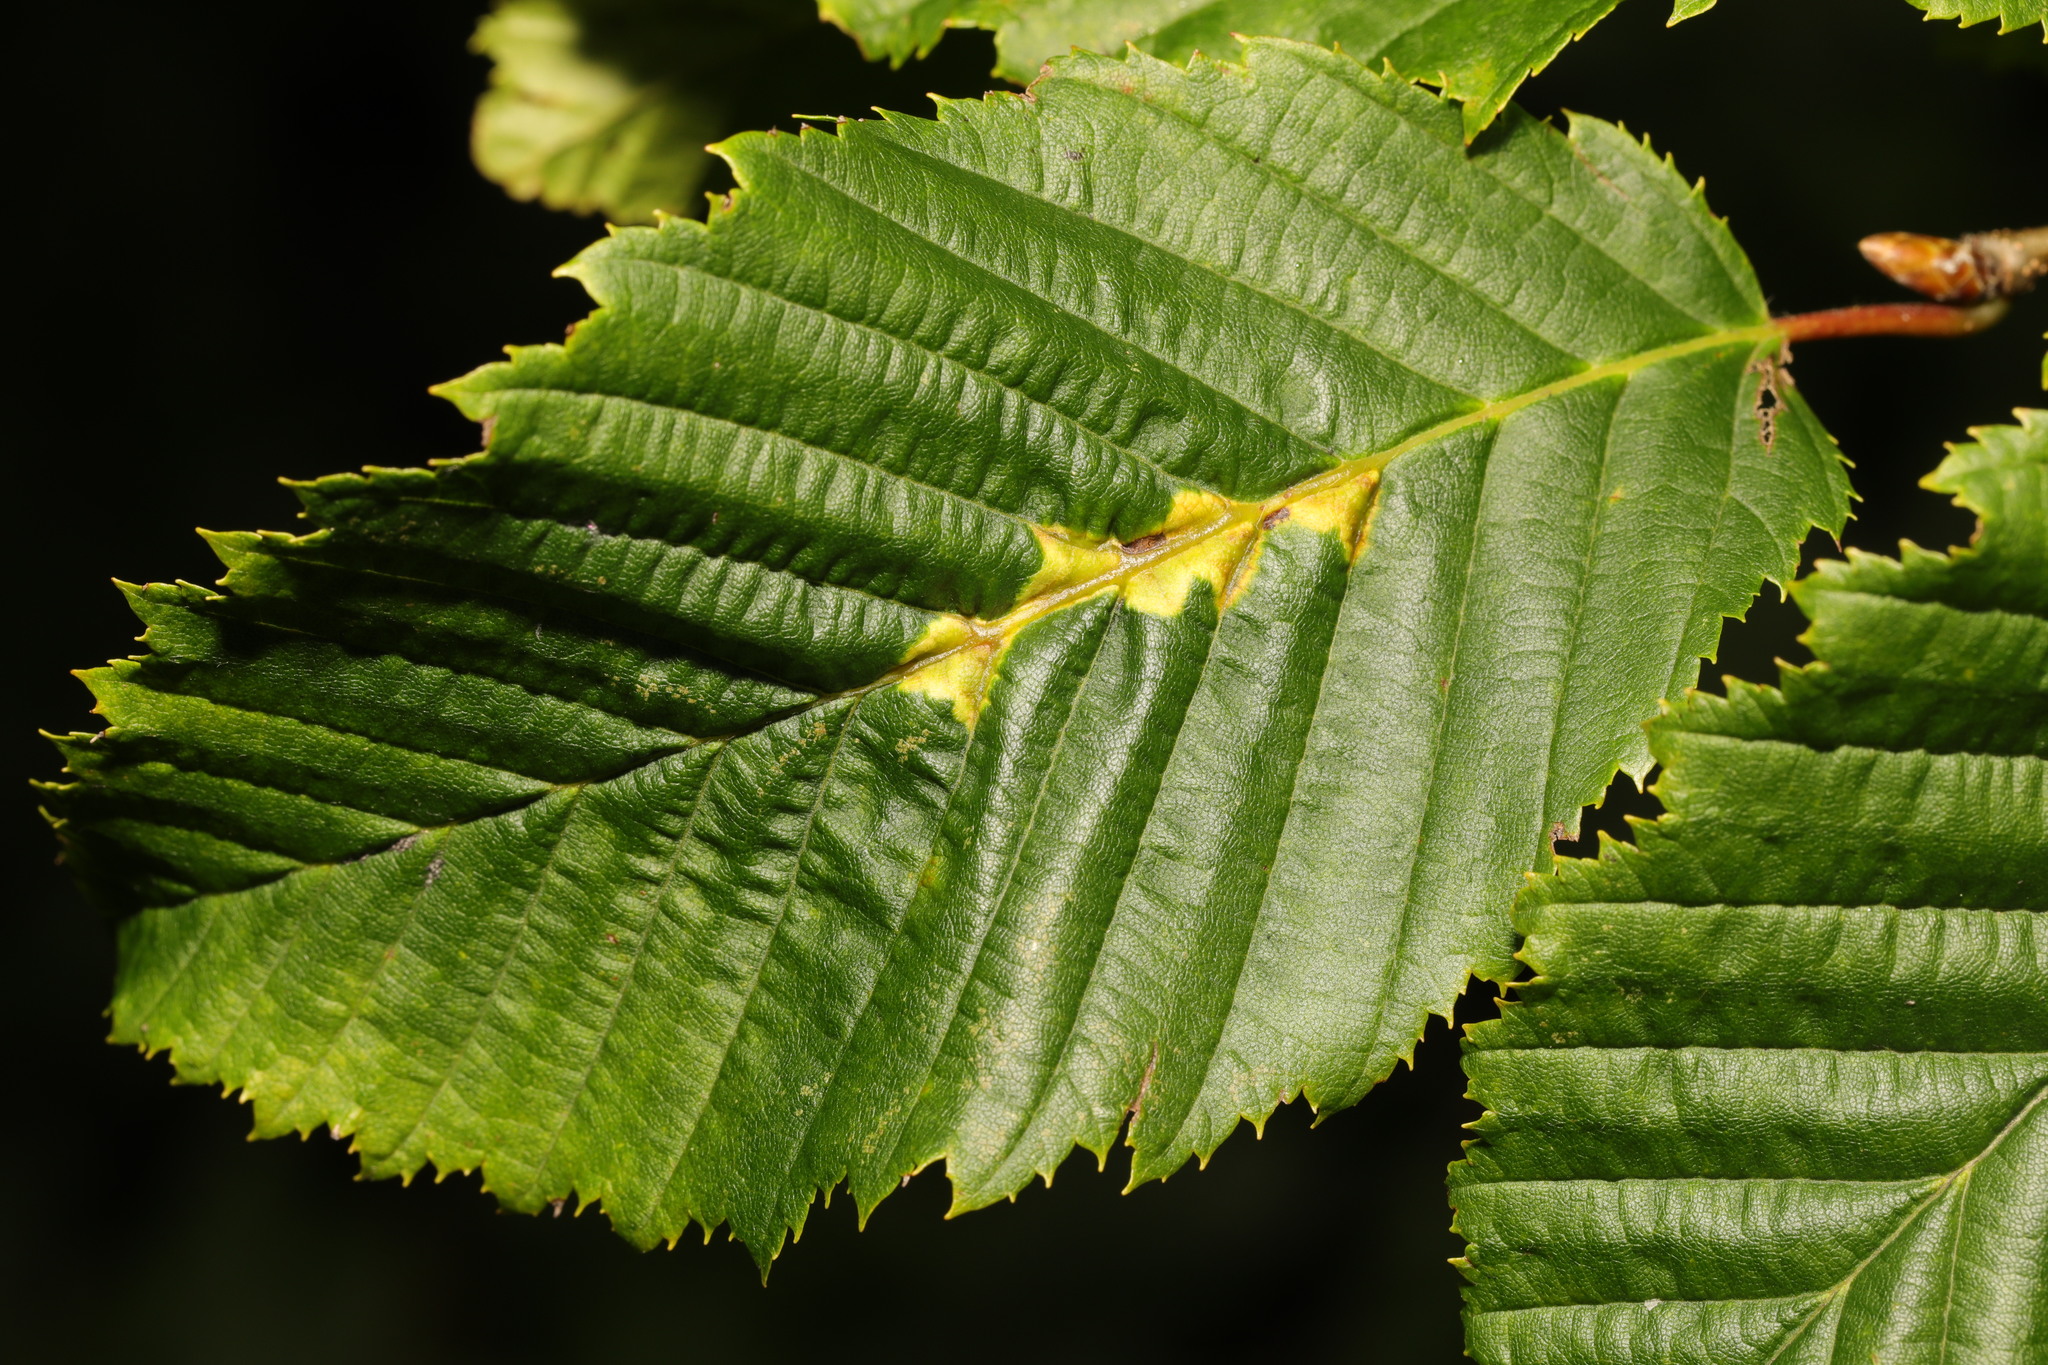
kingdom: Animalia
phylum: Arthropoda
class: Insecta
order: Diptera
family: Cecidomyiidae
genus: Zygiobia
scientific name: Zygiobia carpini
